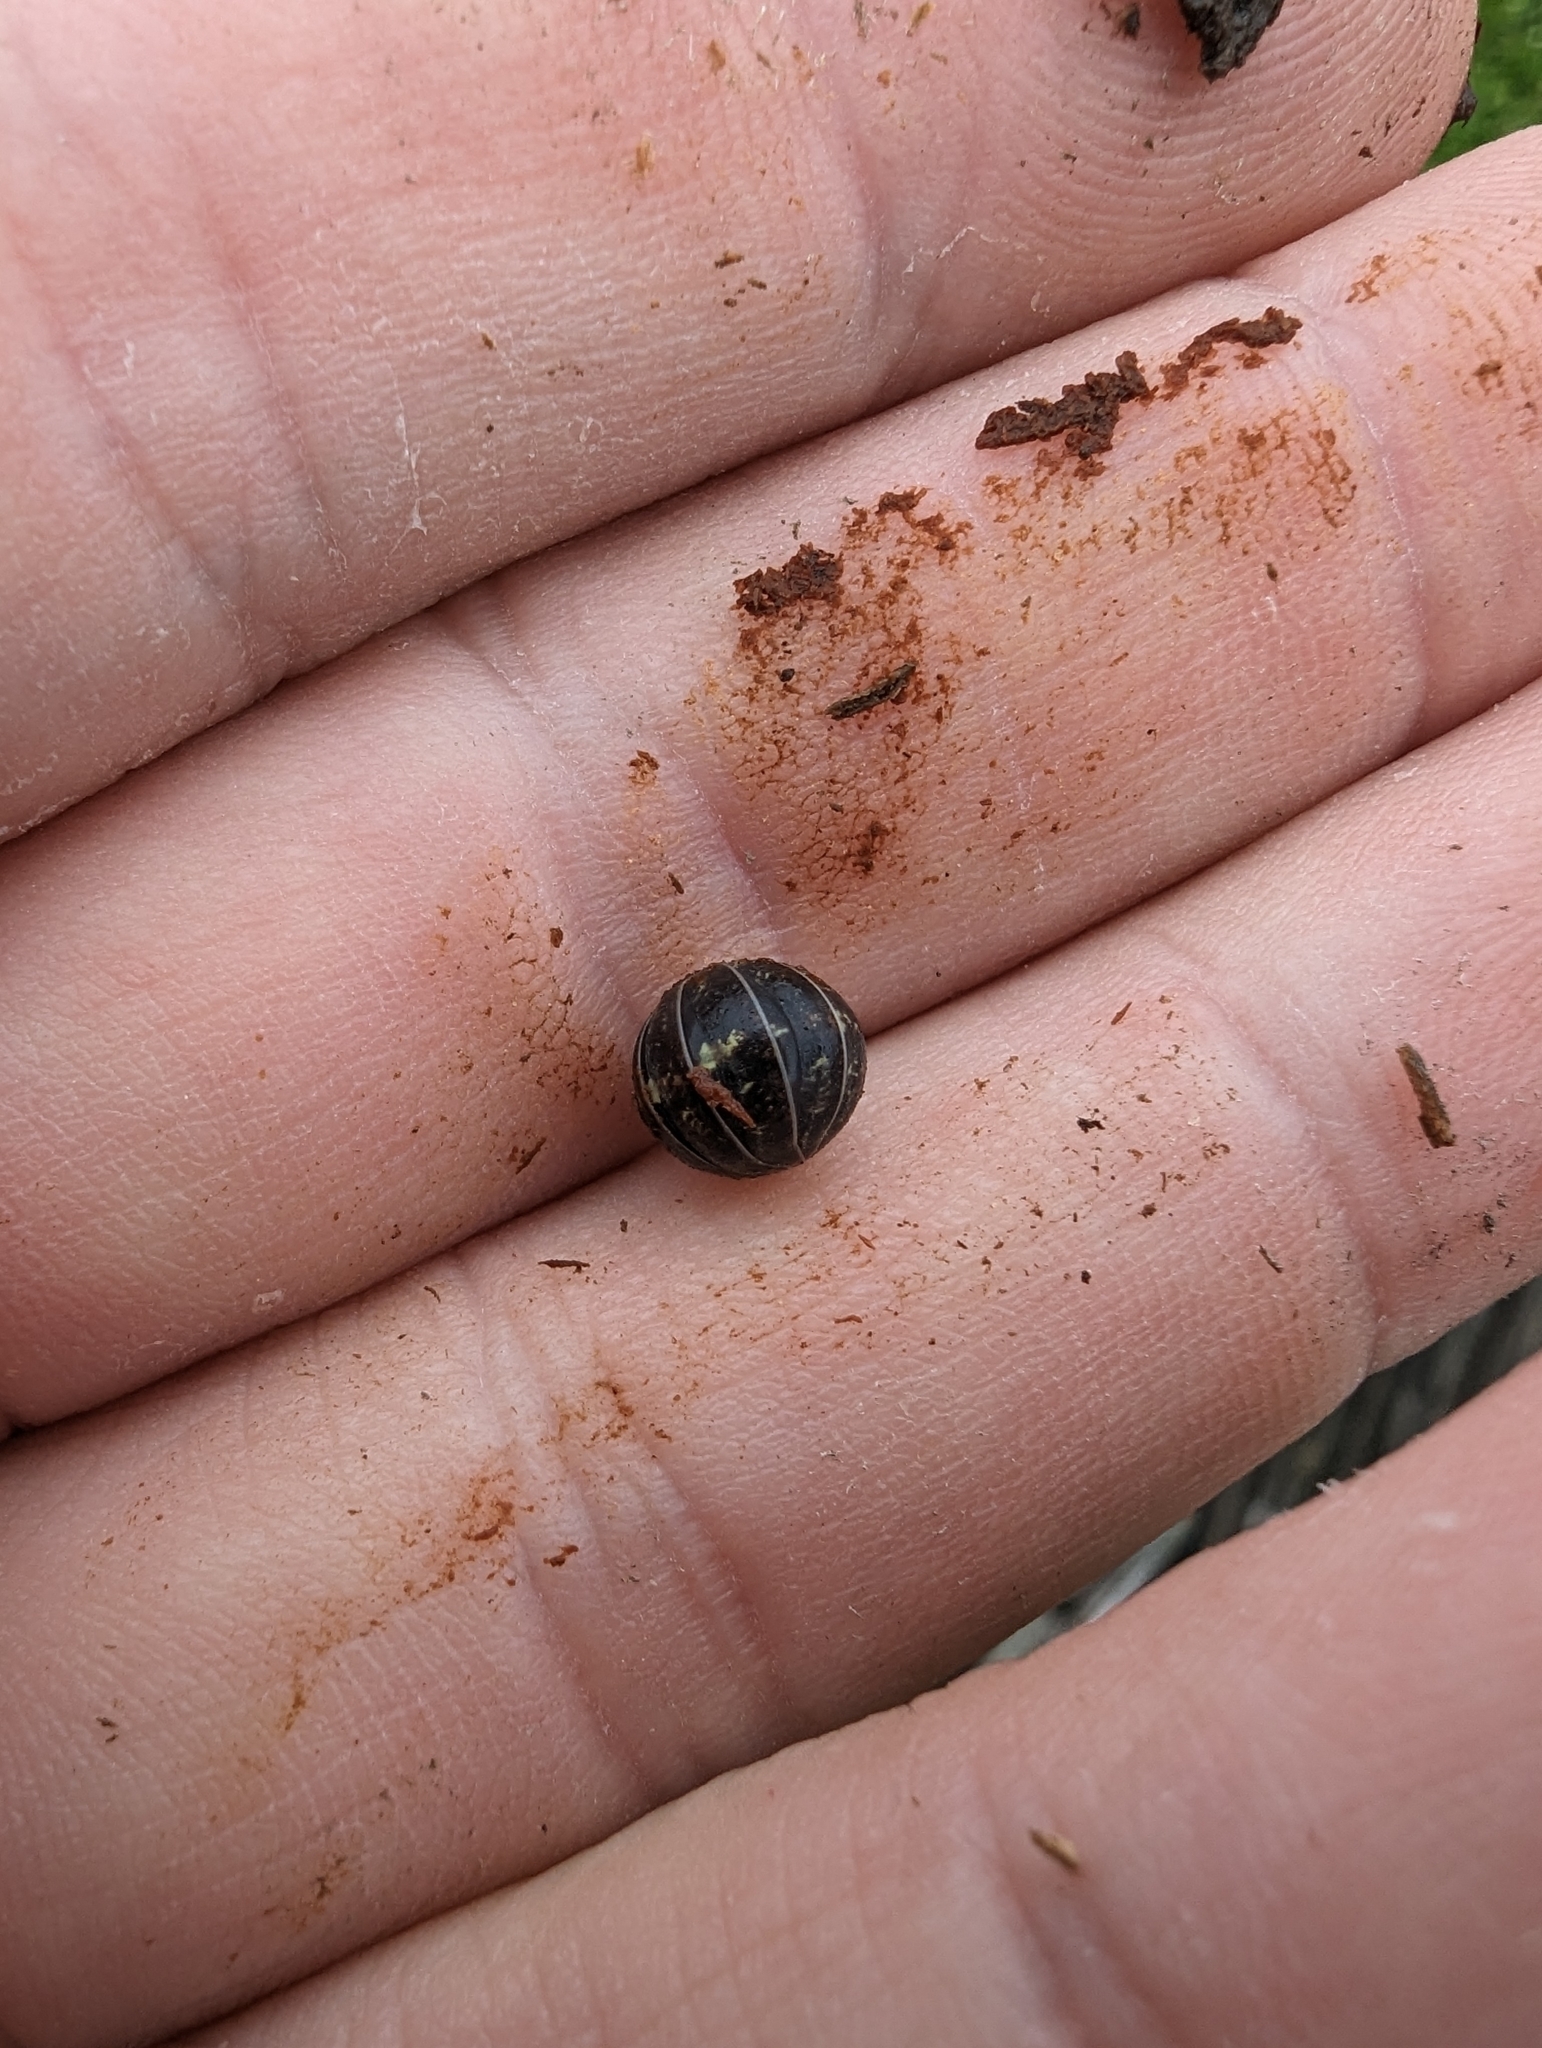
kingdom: Animalia
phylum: Arthropoda
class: Malacostraca
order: Isopoda
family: Armadillidiidae
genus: Armadillidium
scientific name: Armadillidium vulgare
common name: Common pill woodlouse
